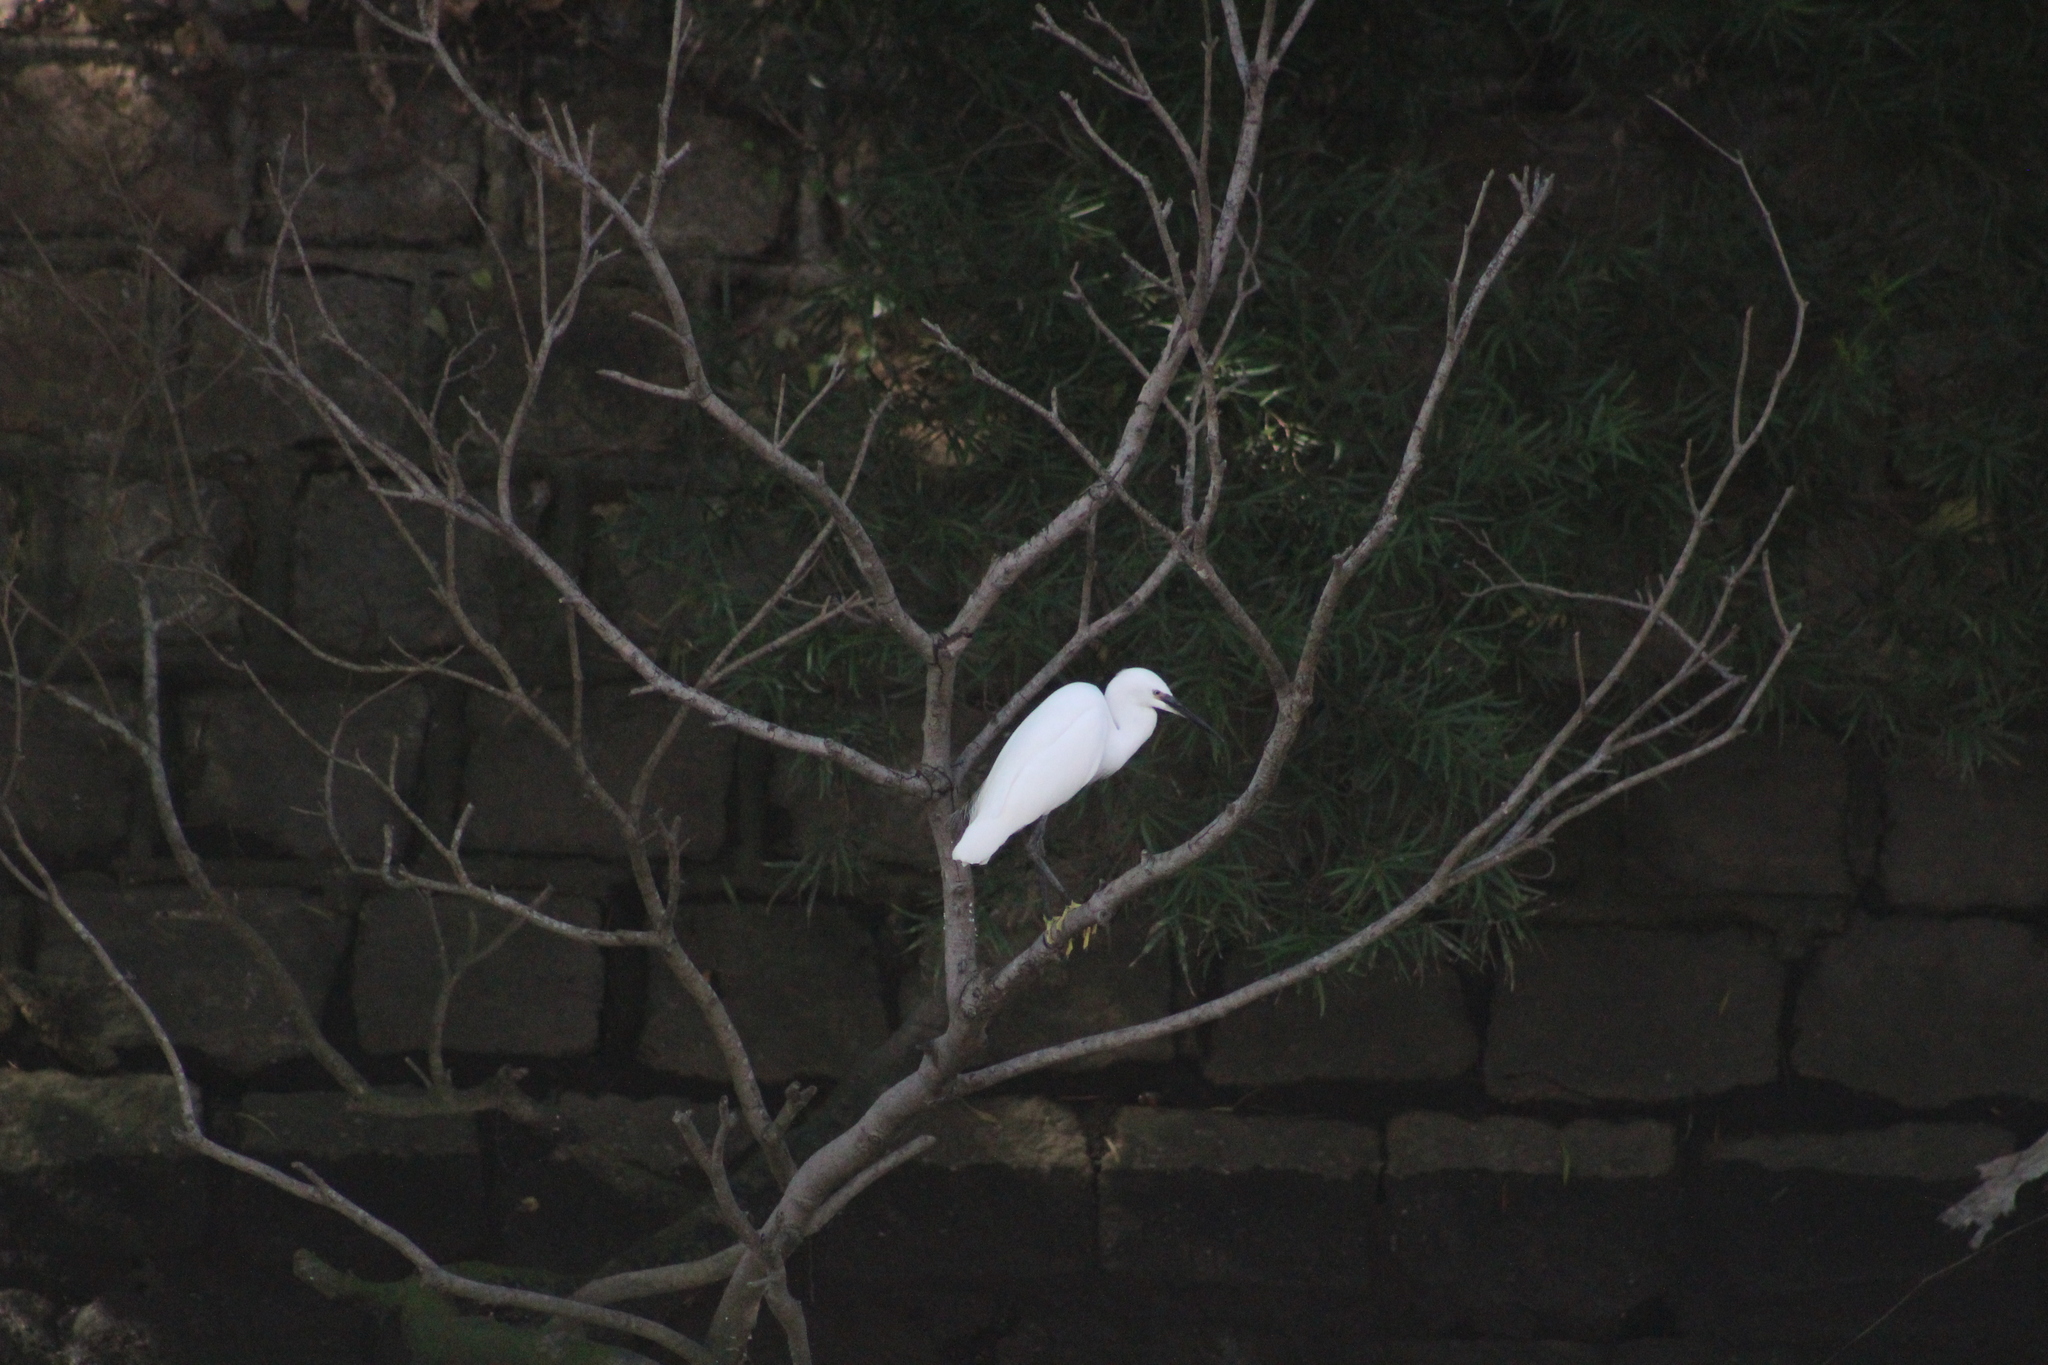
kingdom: Animalia
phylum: Chordata
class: Aves
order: Pelecaniformes
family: Ardeidae
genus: Egretta
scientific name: Egretta garzetta
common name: Little egret
